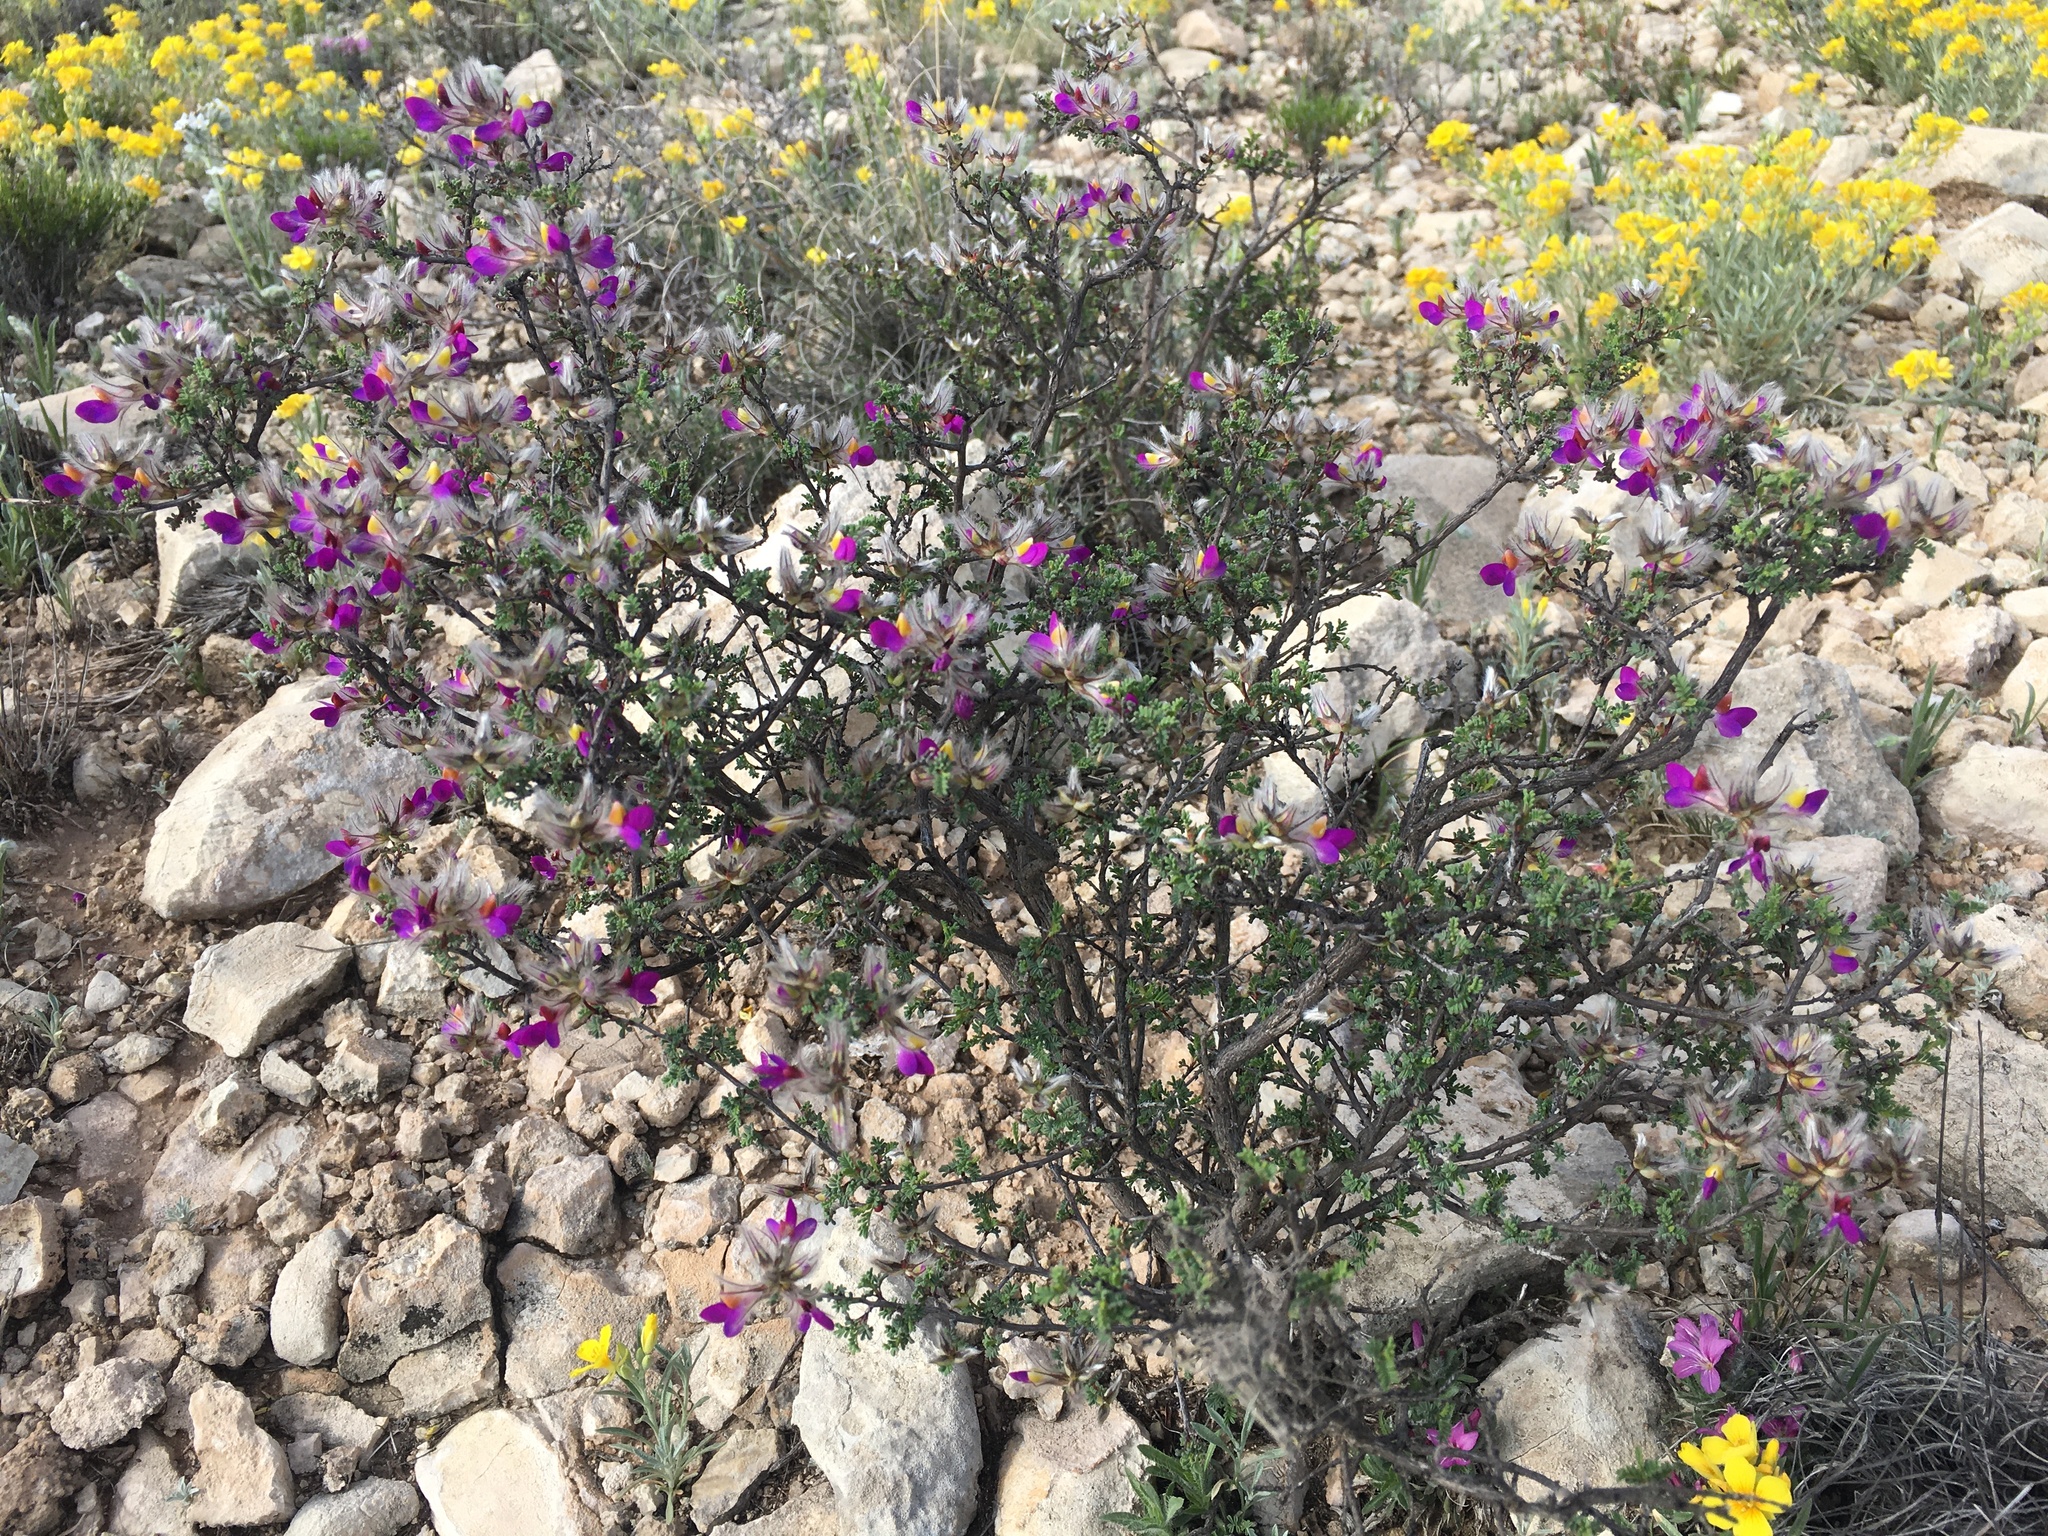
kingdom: Plantae
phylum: Tracheophyta
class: Magnoliopsida
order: Fabales
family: Fabaceae
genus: Dalea
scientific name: Dalea formosa
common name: Feather-plume dalea
